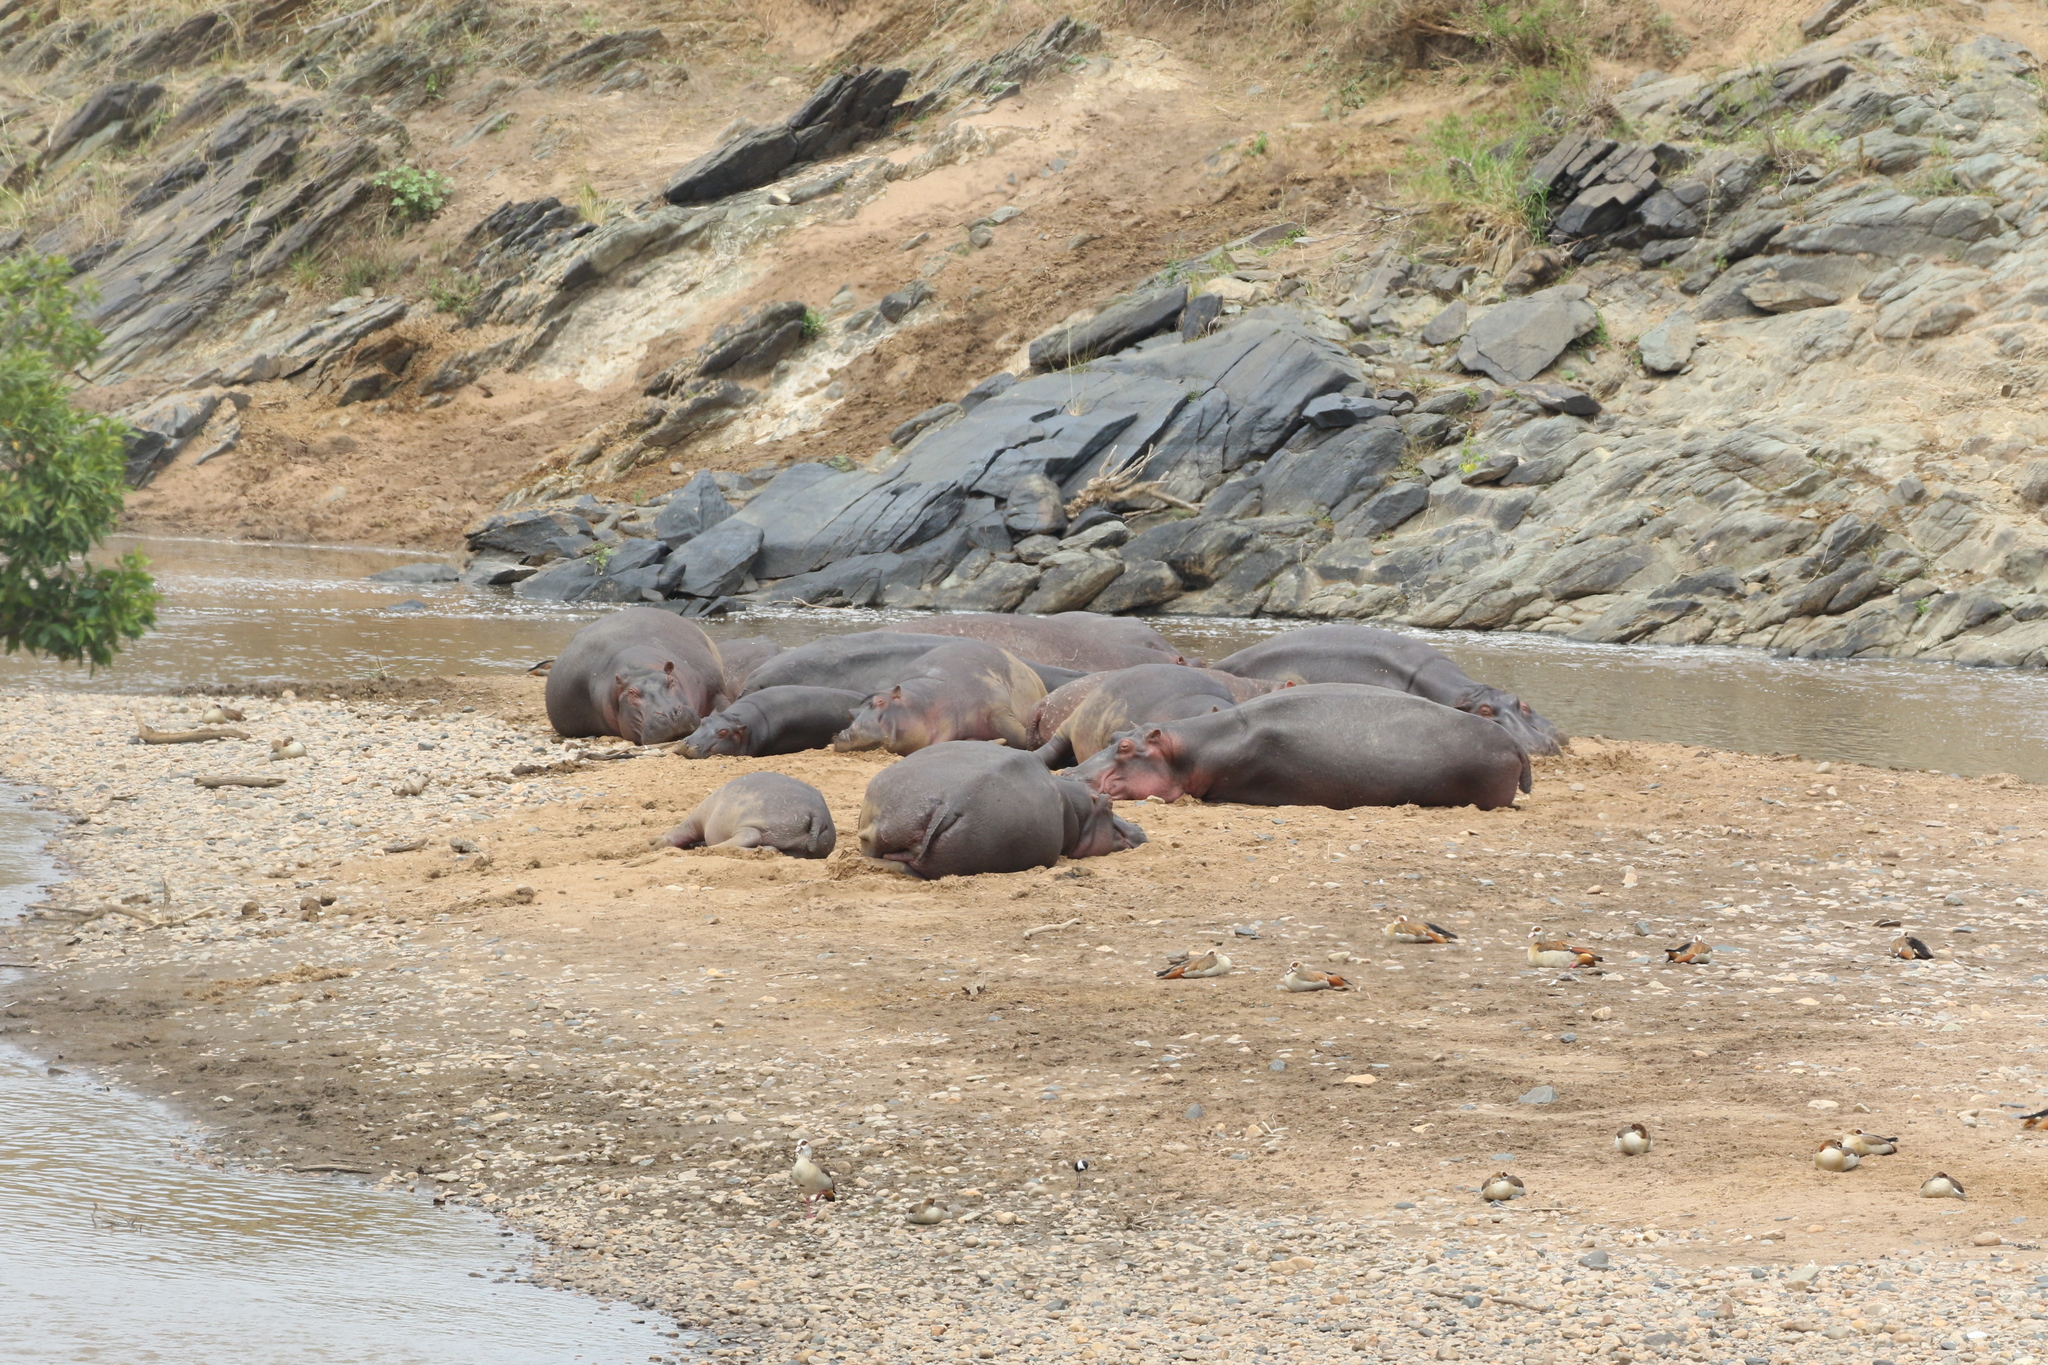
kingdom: Animalia
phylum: Chordata
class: Mammalia
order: Artiodactyla
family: Hippopotamidae
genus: Hippopotamus
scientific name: Hippopotamus amphibius
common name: Common hippopotamus
